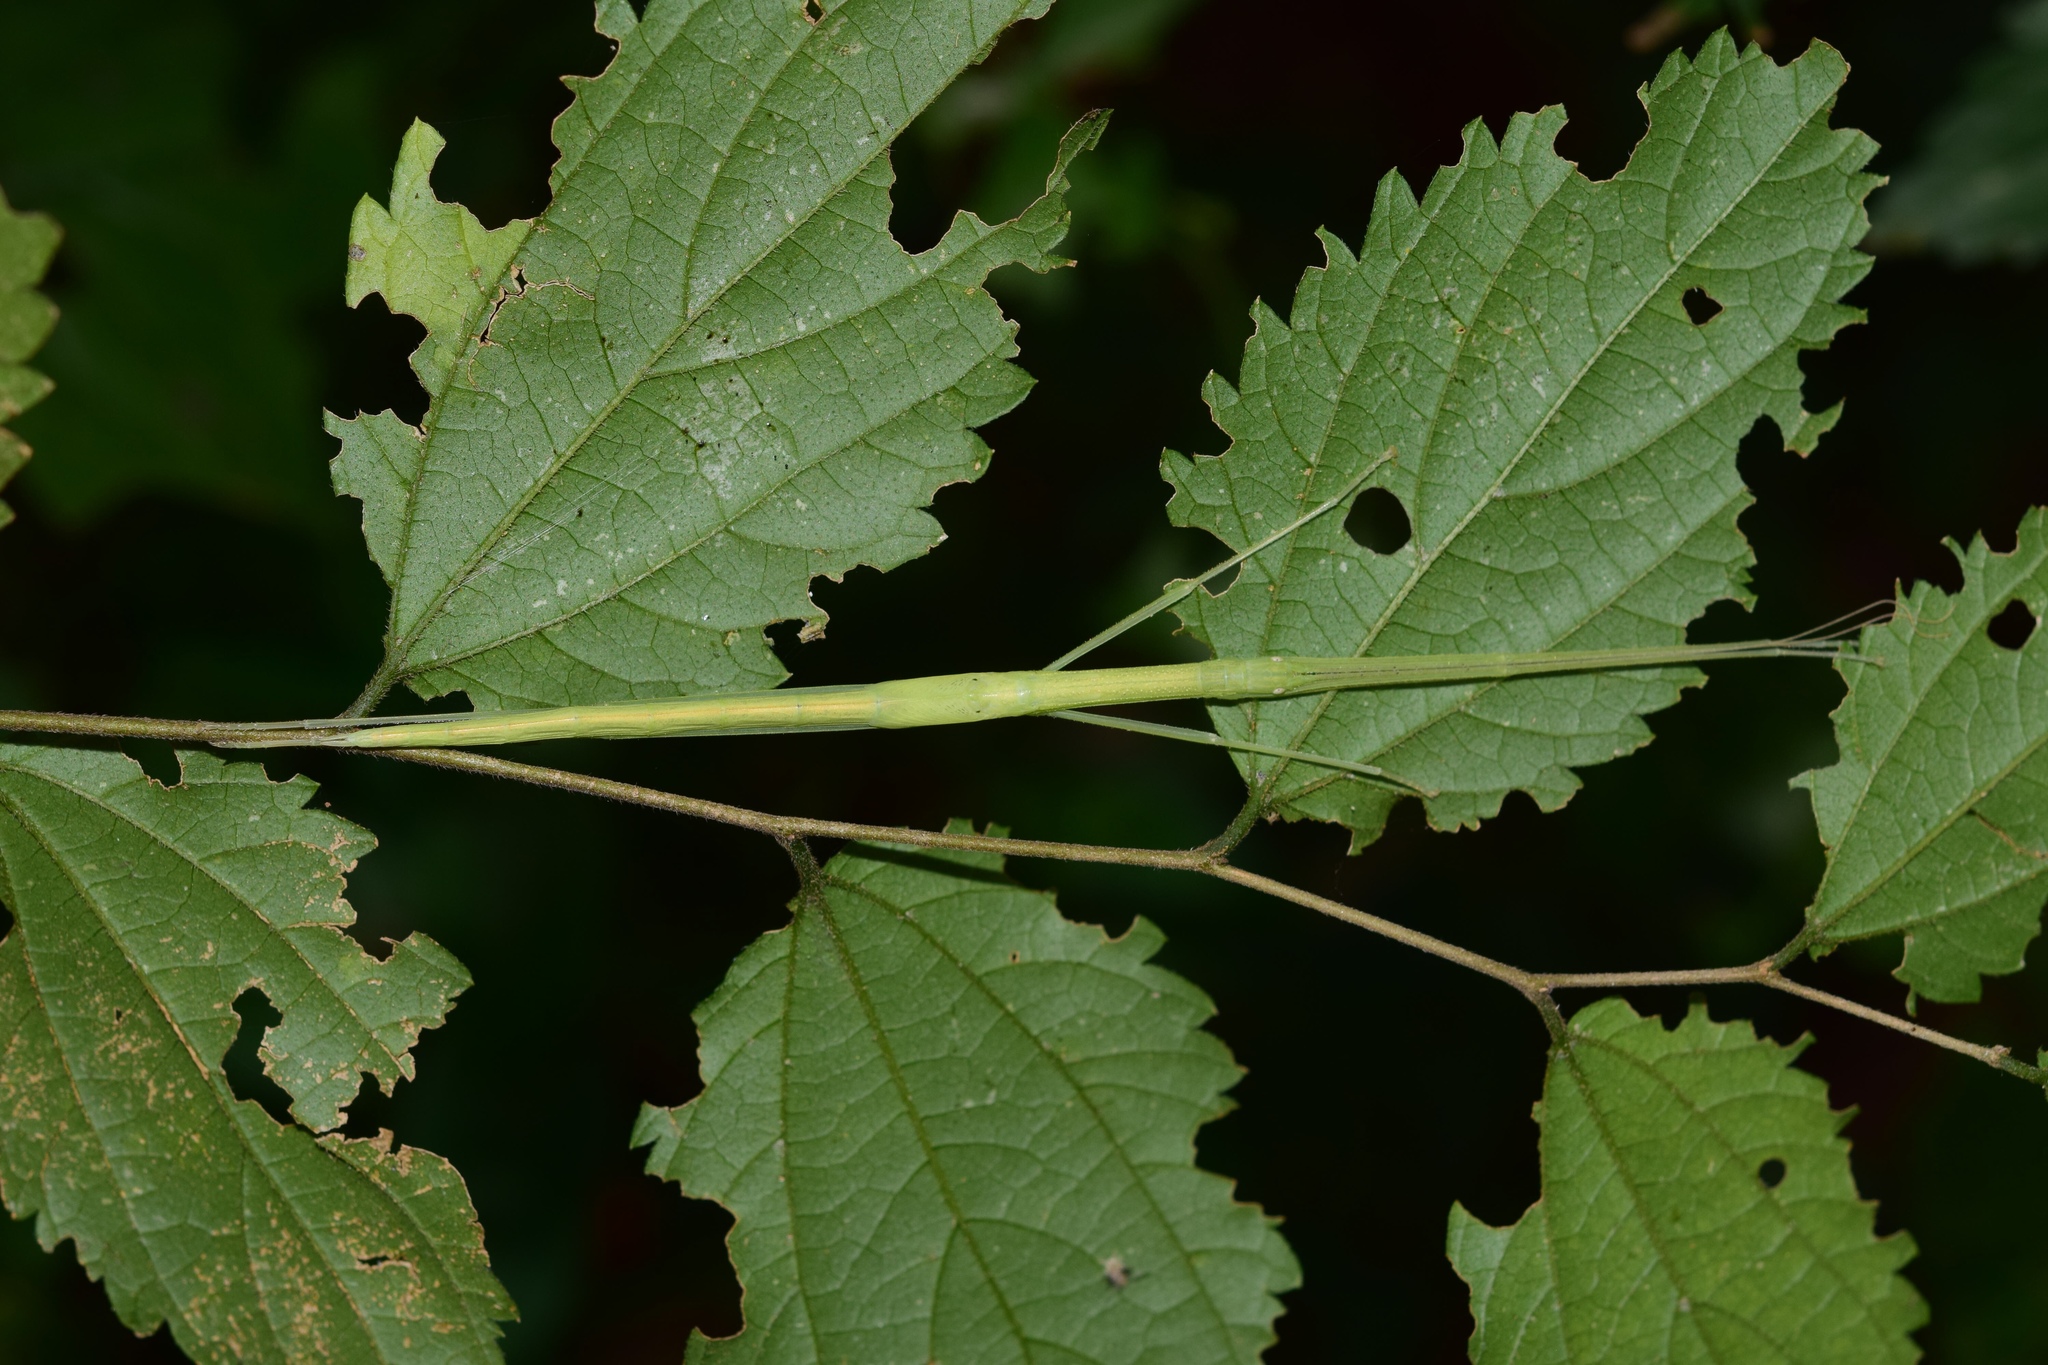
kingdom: Animalia
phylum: Arthropoda
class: Insecta
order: Phasmida
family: Lonchodidae
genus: Sipyloidea
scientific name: Sipyloidea sipylus
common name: Madagascan stick insect
